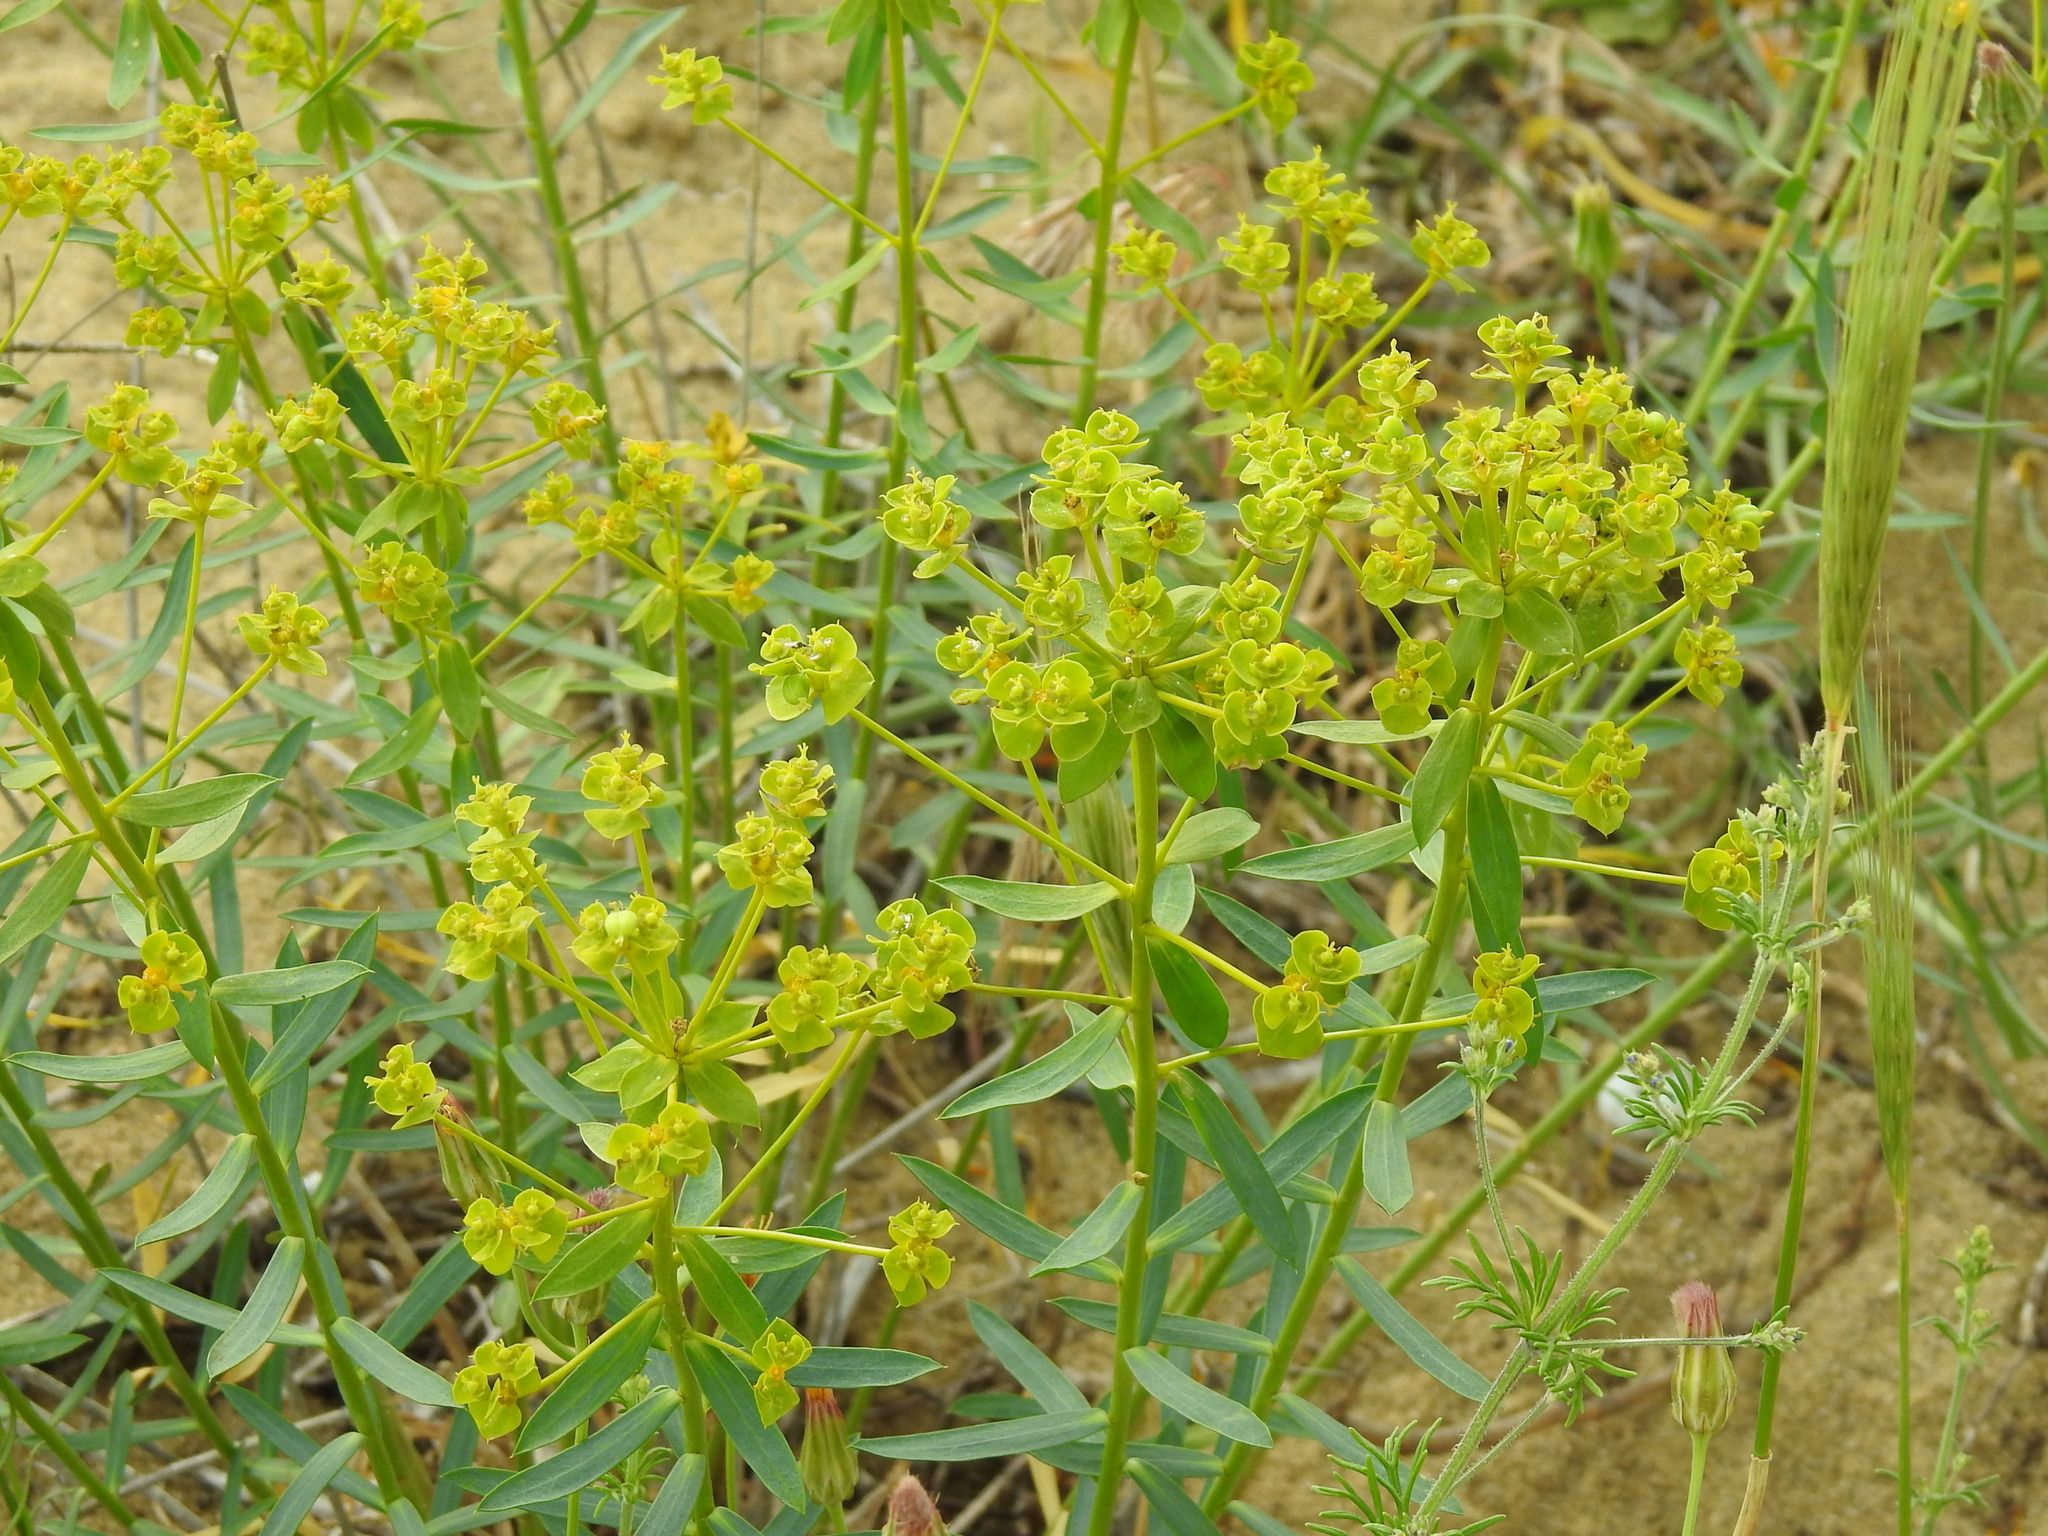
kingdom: Plantae
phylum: Tracheophyta
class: Magnoliopsida
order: Malpighiales
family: Euphorbiaceae
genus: Euphorbia
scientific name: Euphorbia seguieriana
